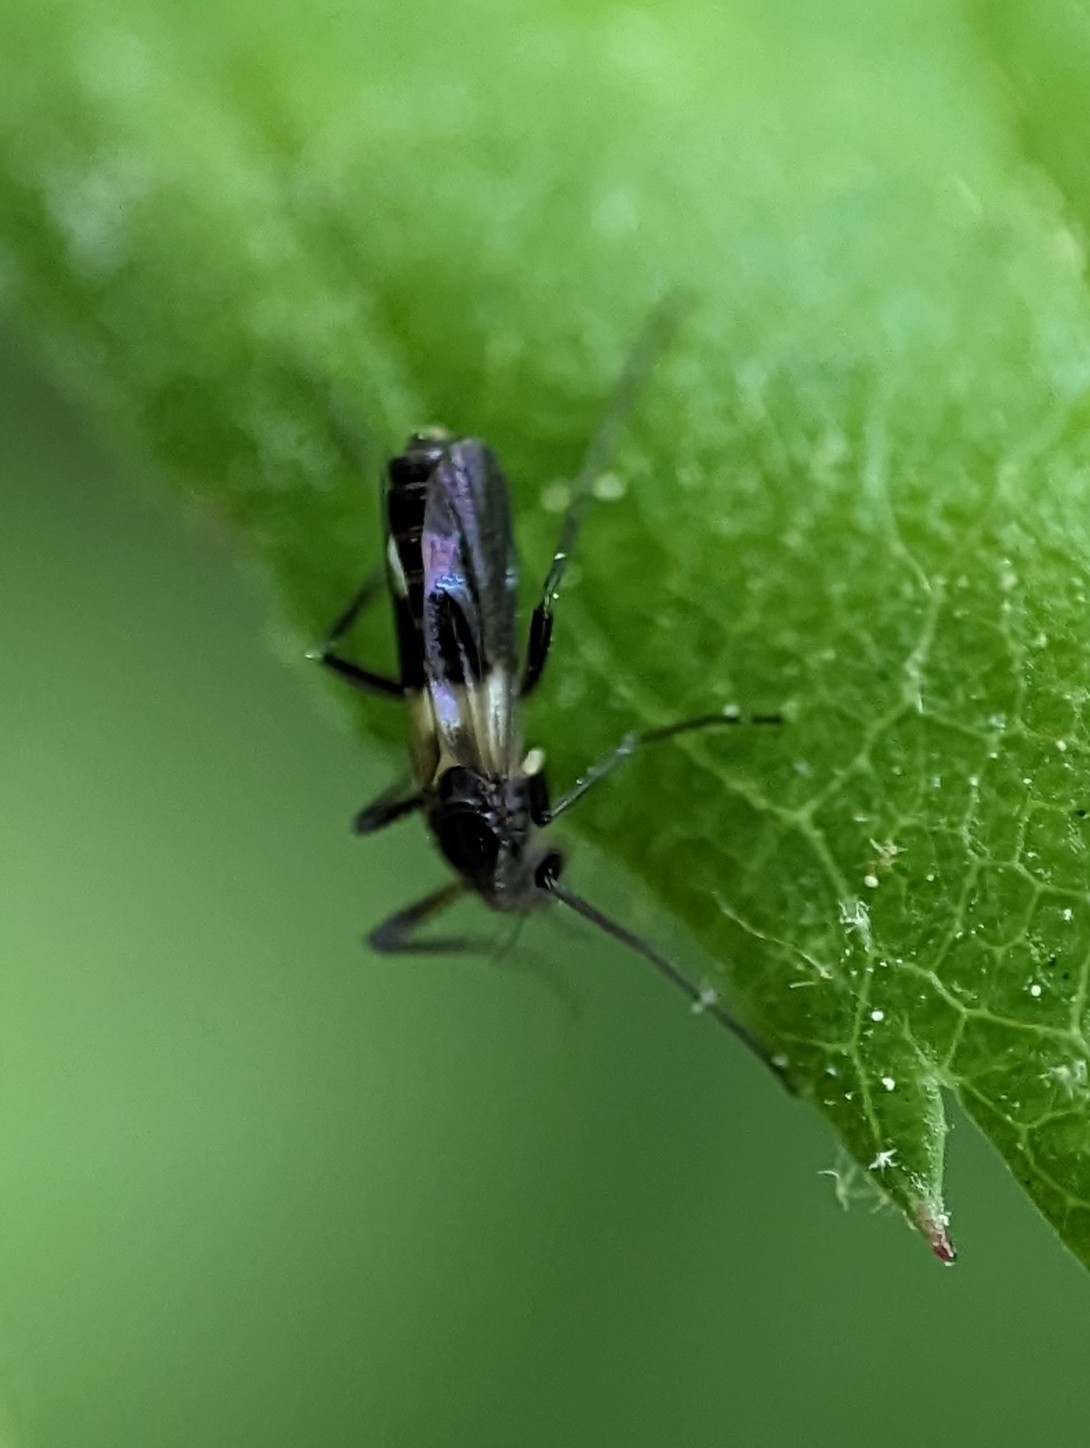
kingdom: Animalia
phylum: Arthropoda
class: Insecta
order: Diptera
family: Chironomidae
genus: Chasmatonotus
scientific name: Chasmatonotus atripes
